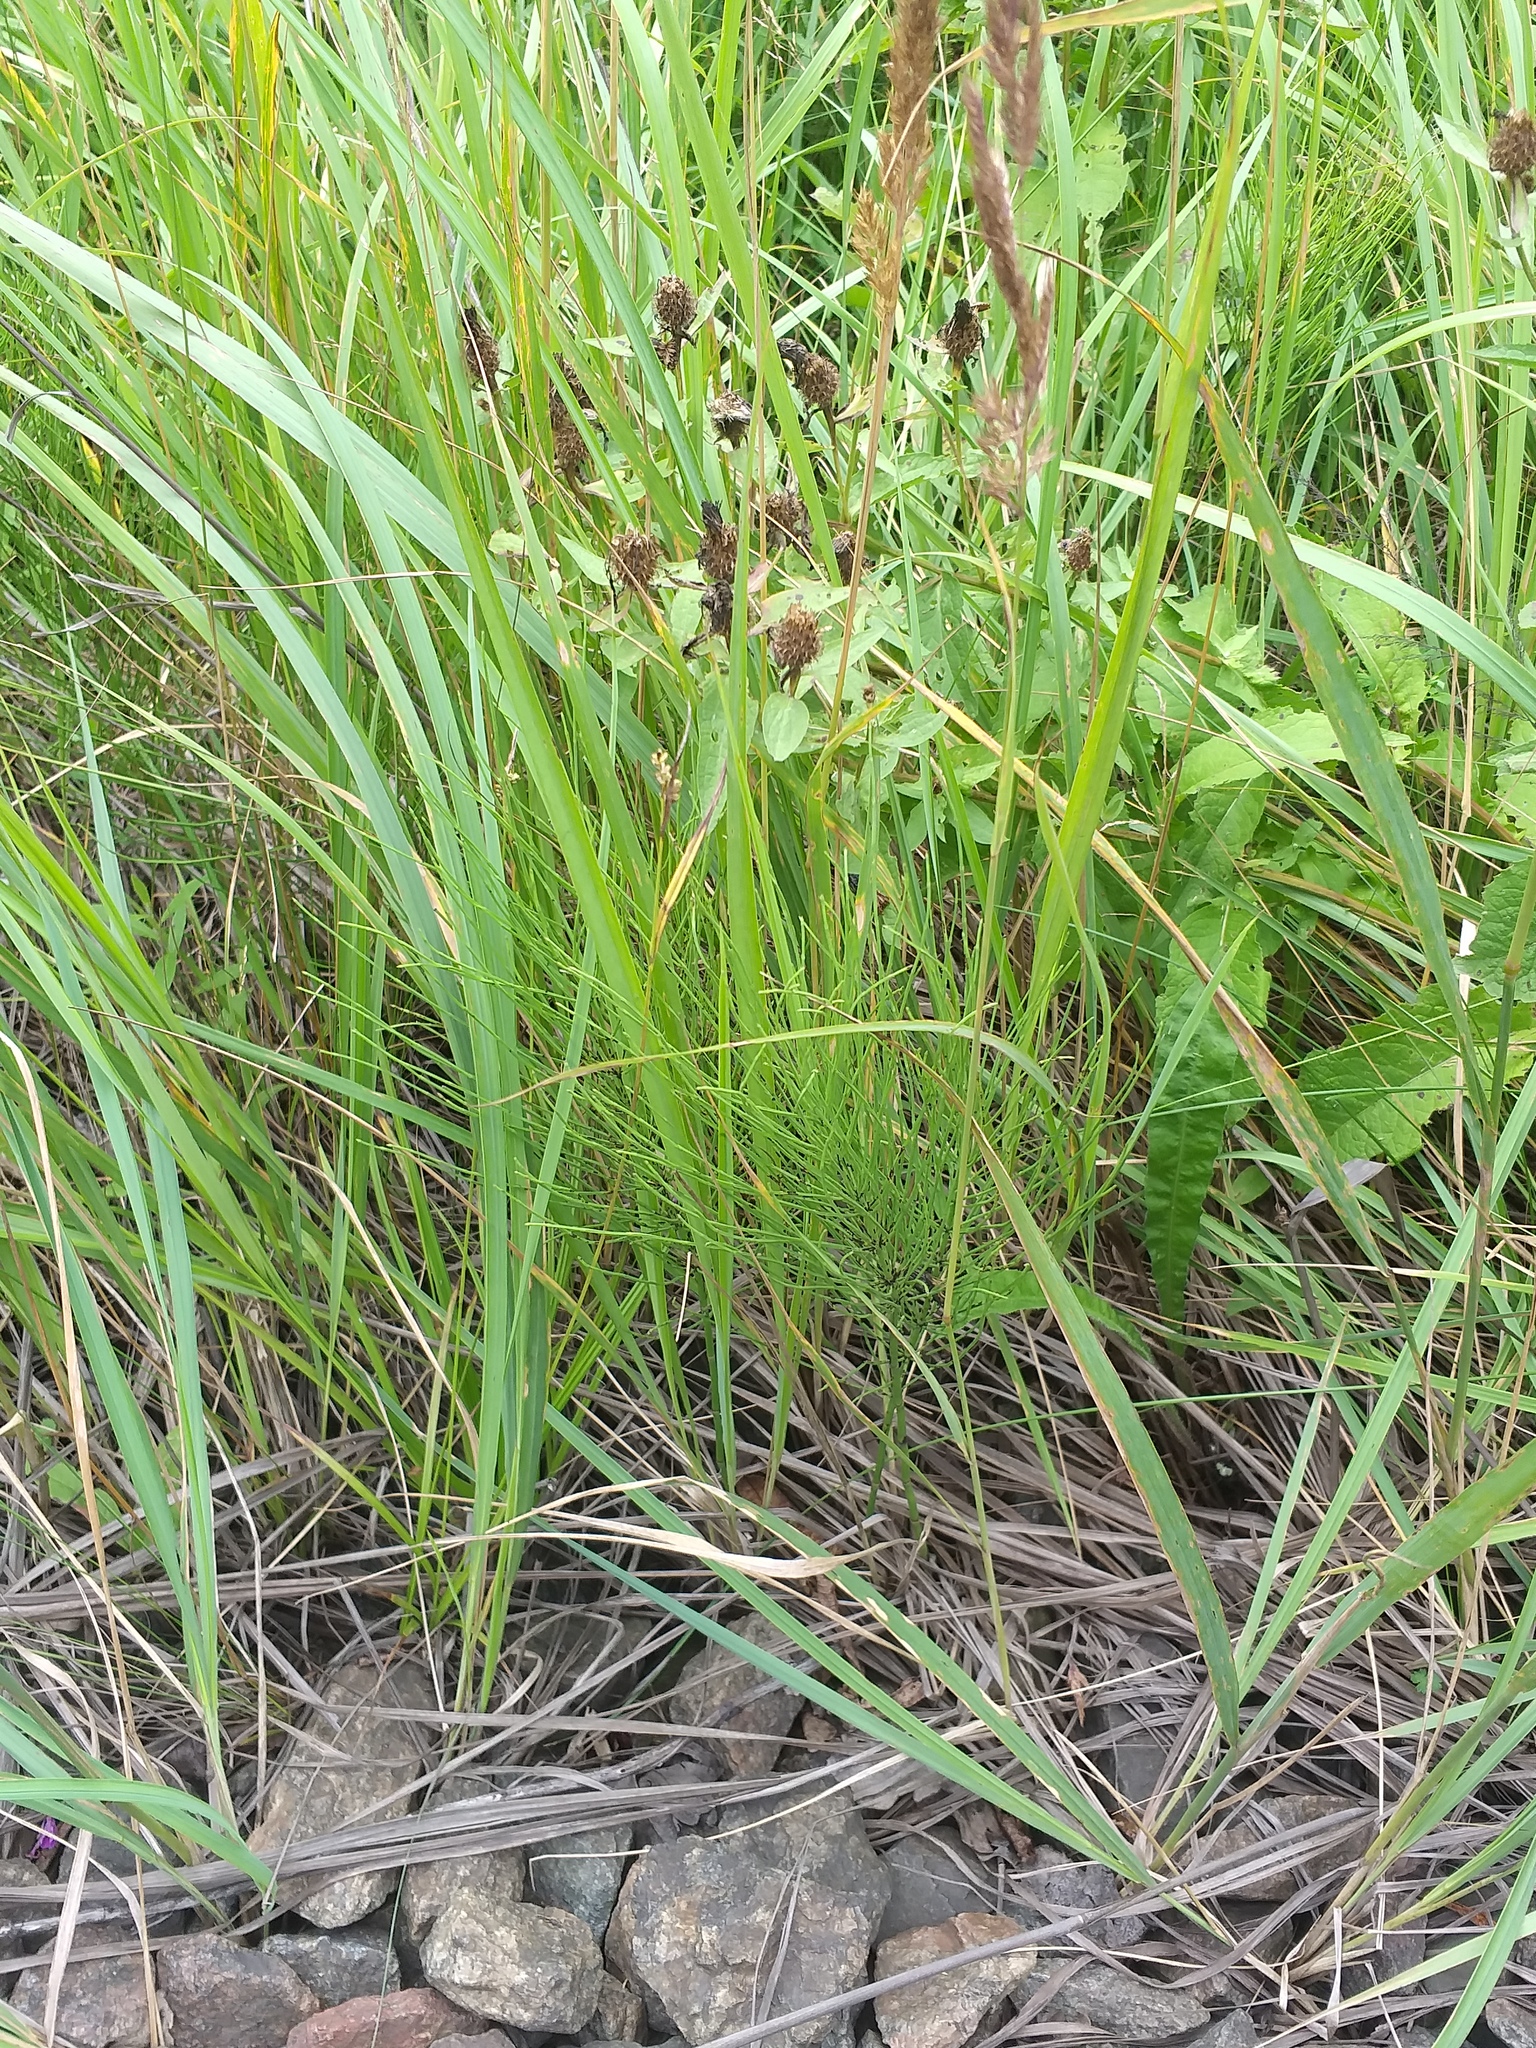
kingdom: Plantae
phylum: Tracheophyta
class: Polypodiopsida
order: Equisetales
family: Equisetaceae
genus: Equisetum
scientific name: Equisetum arvense
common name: Field horsetail
